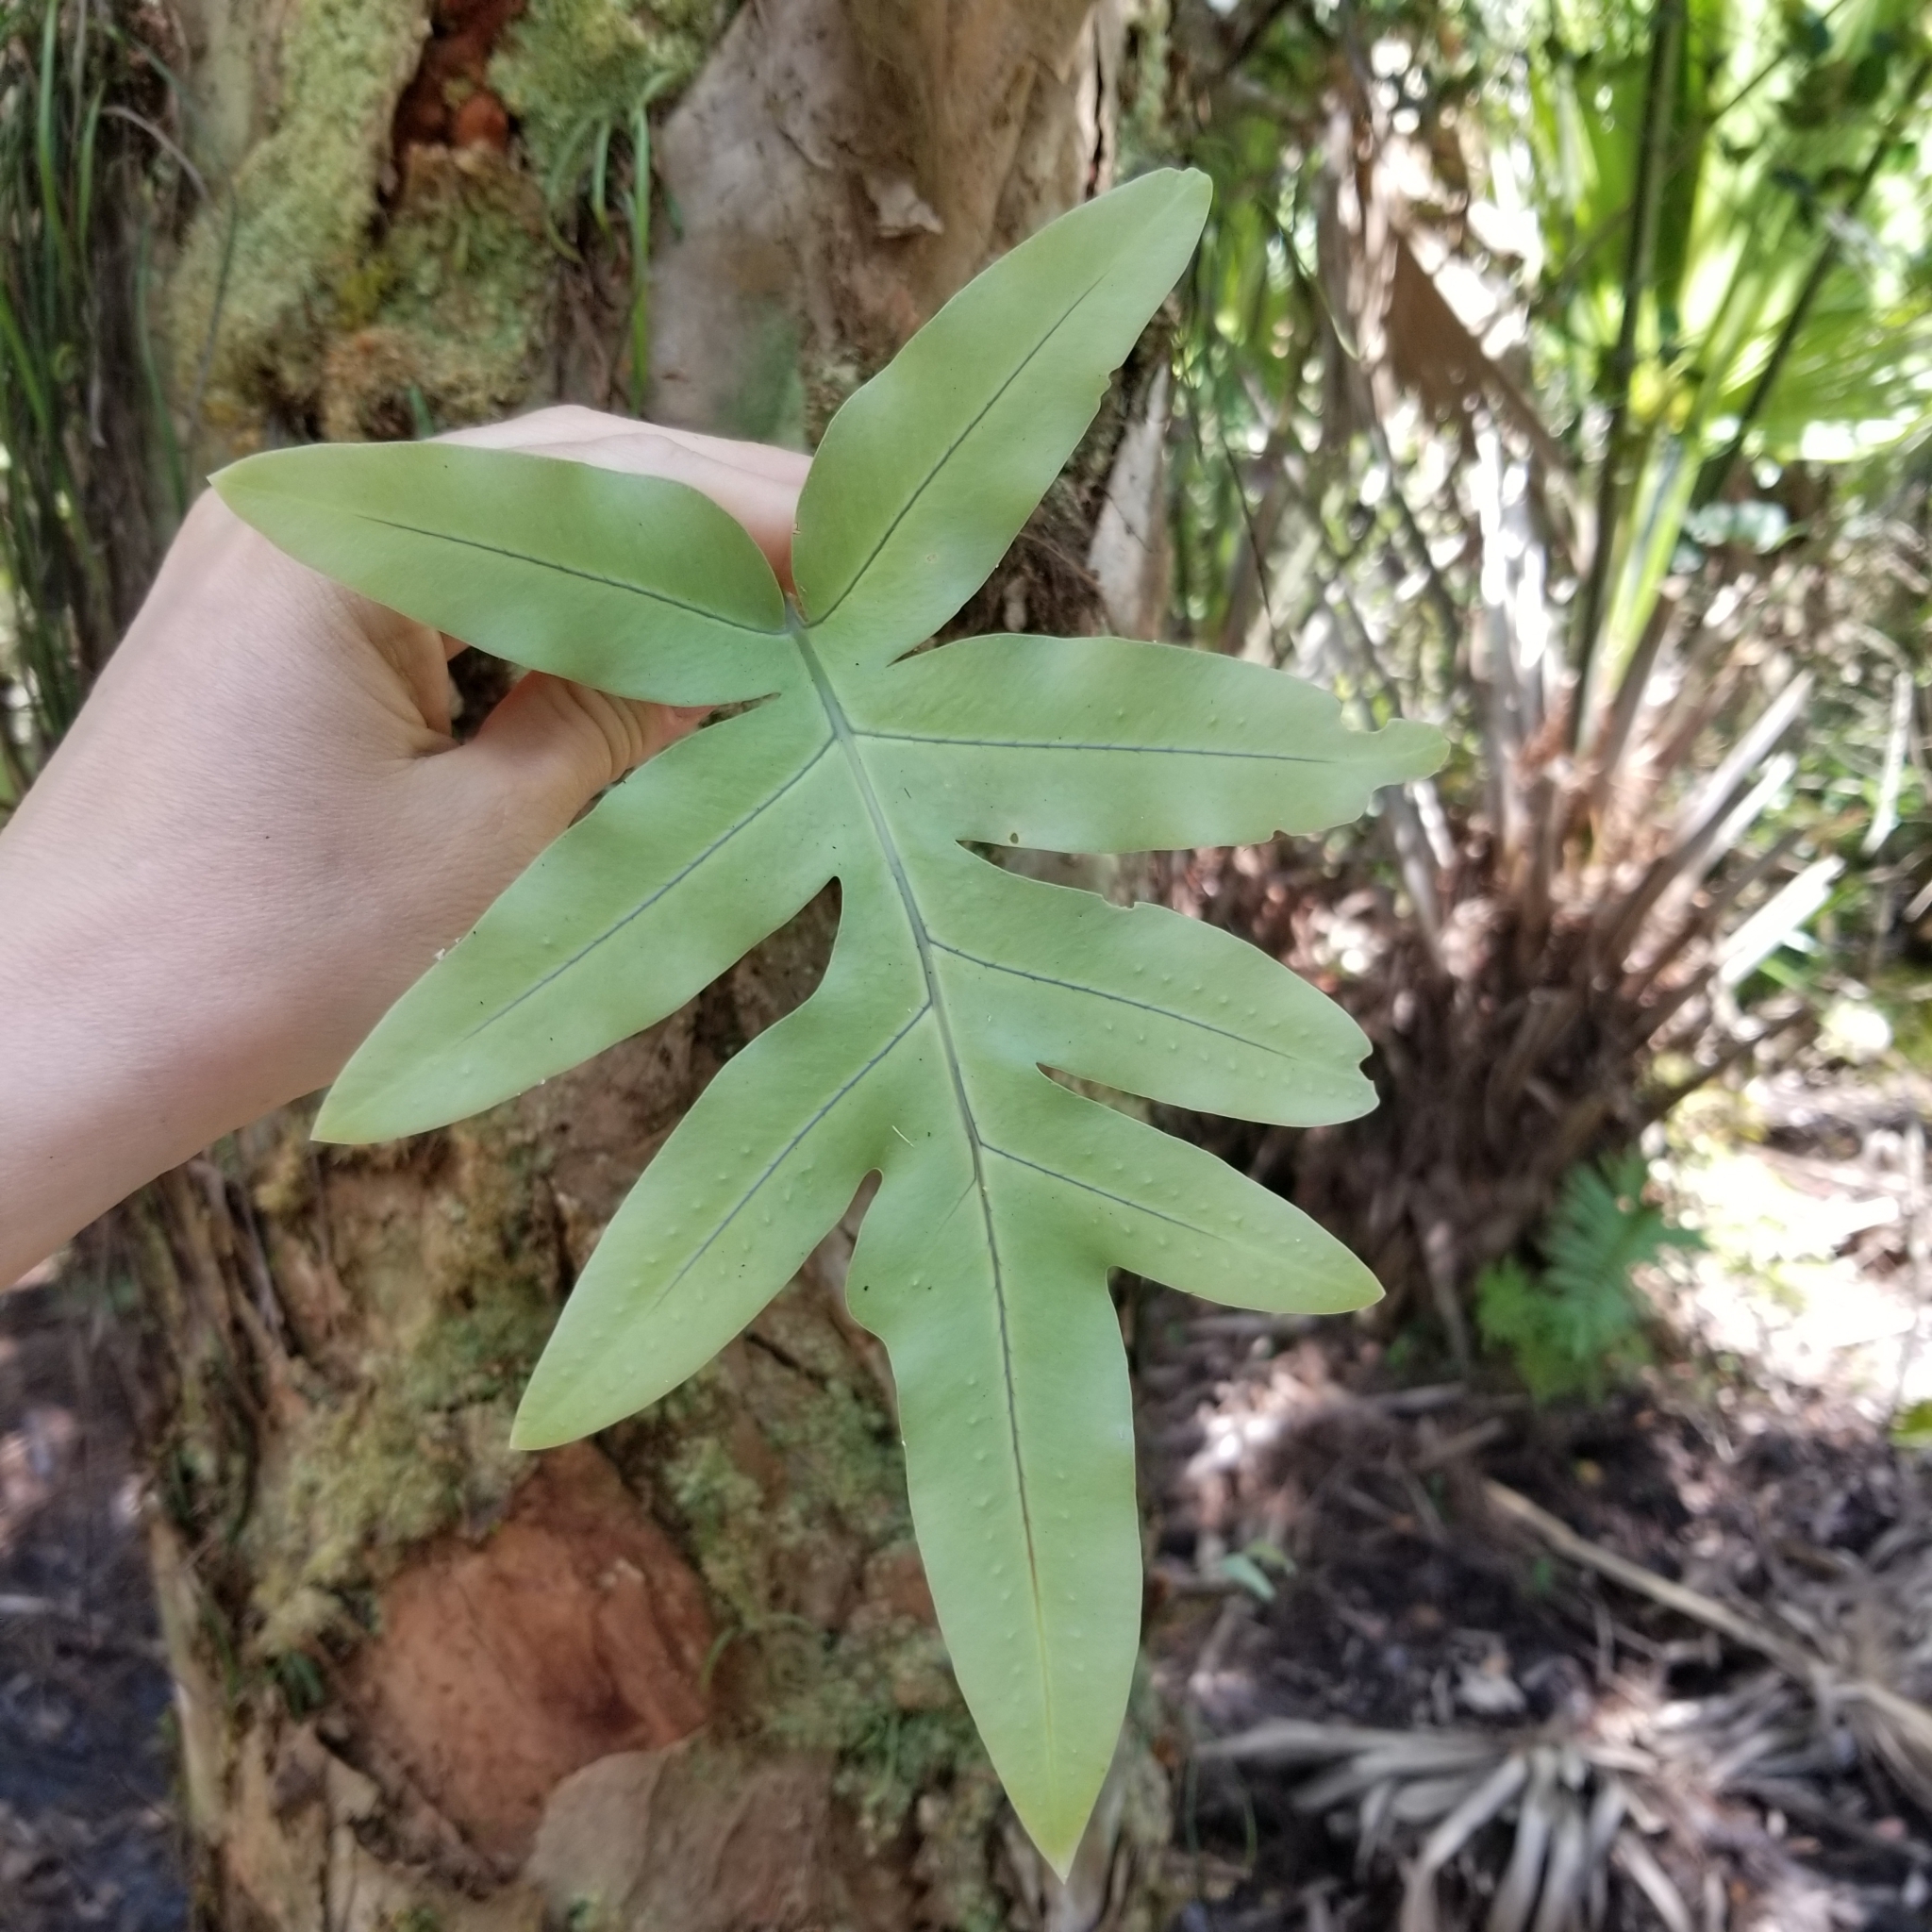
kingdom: Plantae
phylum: Tracheophyta
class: Polypodiopsida
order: Polypodiales
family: Polypodiaceae
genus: Phlebodium
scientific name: Phlebodium aureum
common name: Gold-foot fern
